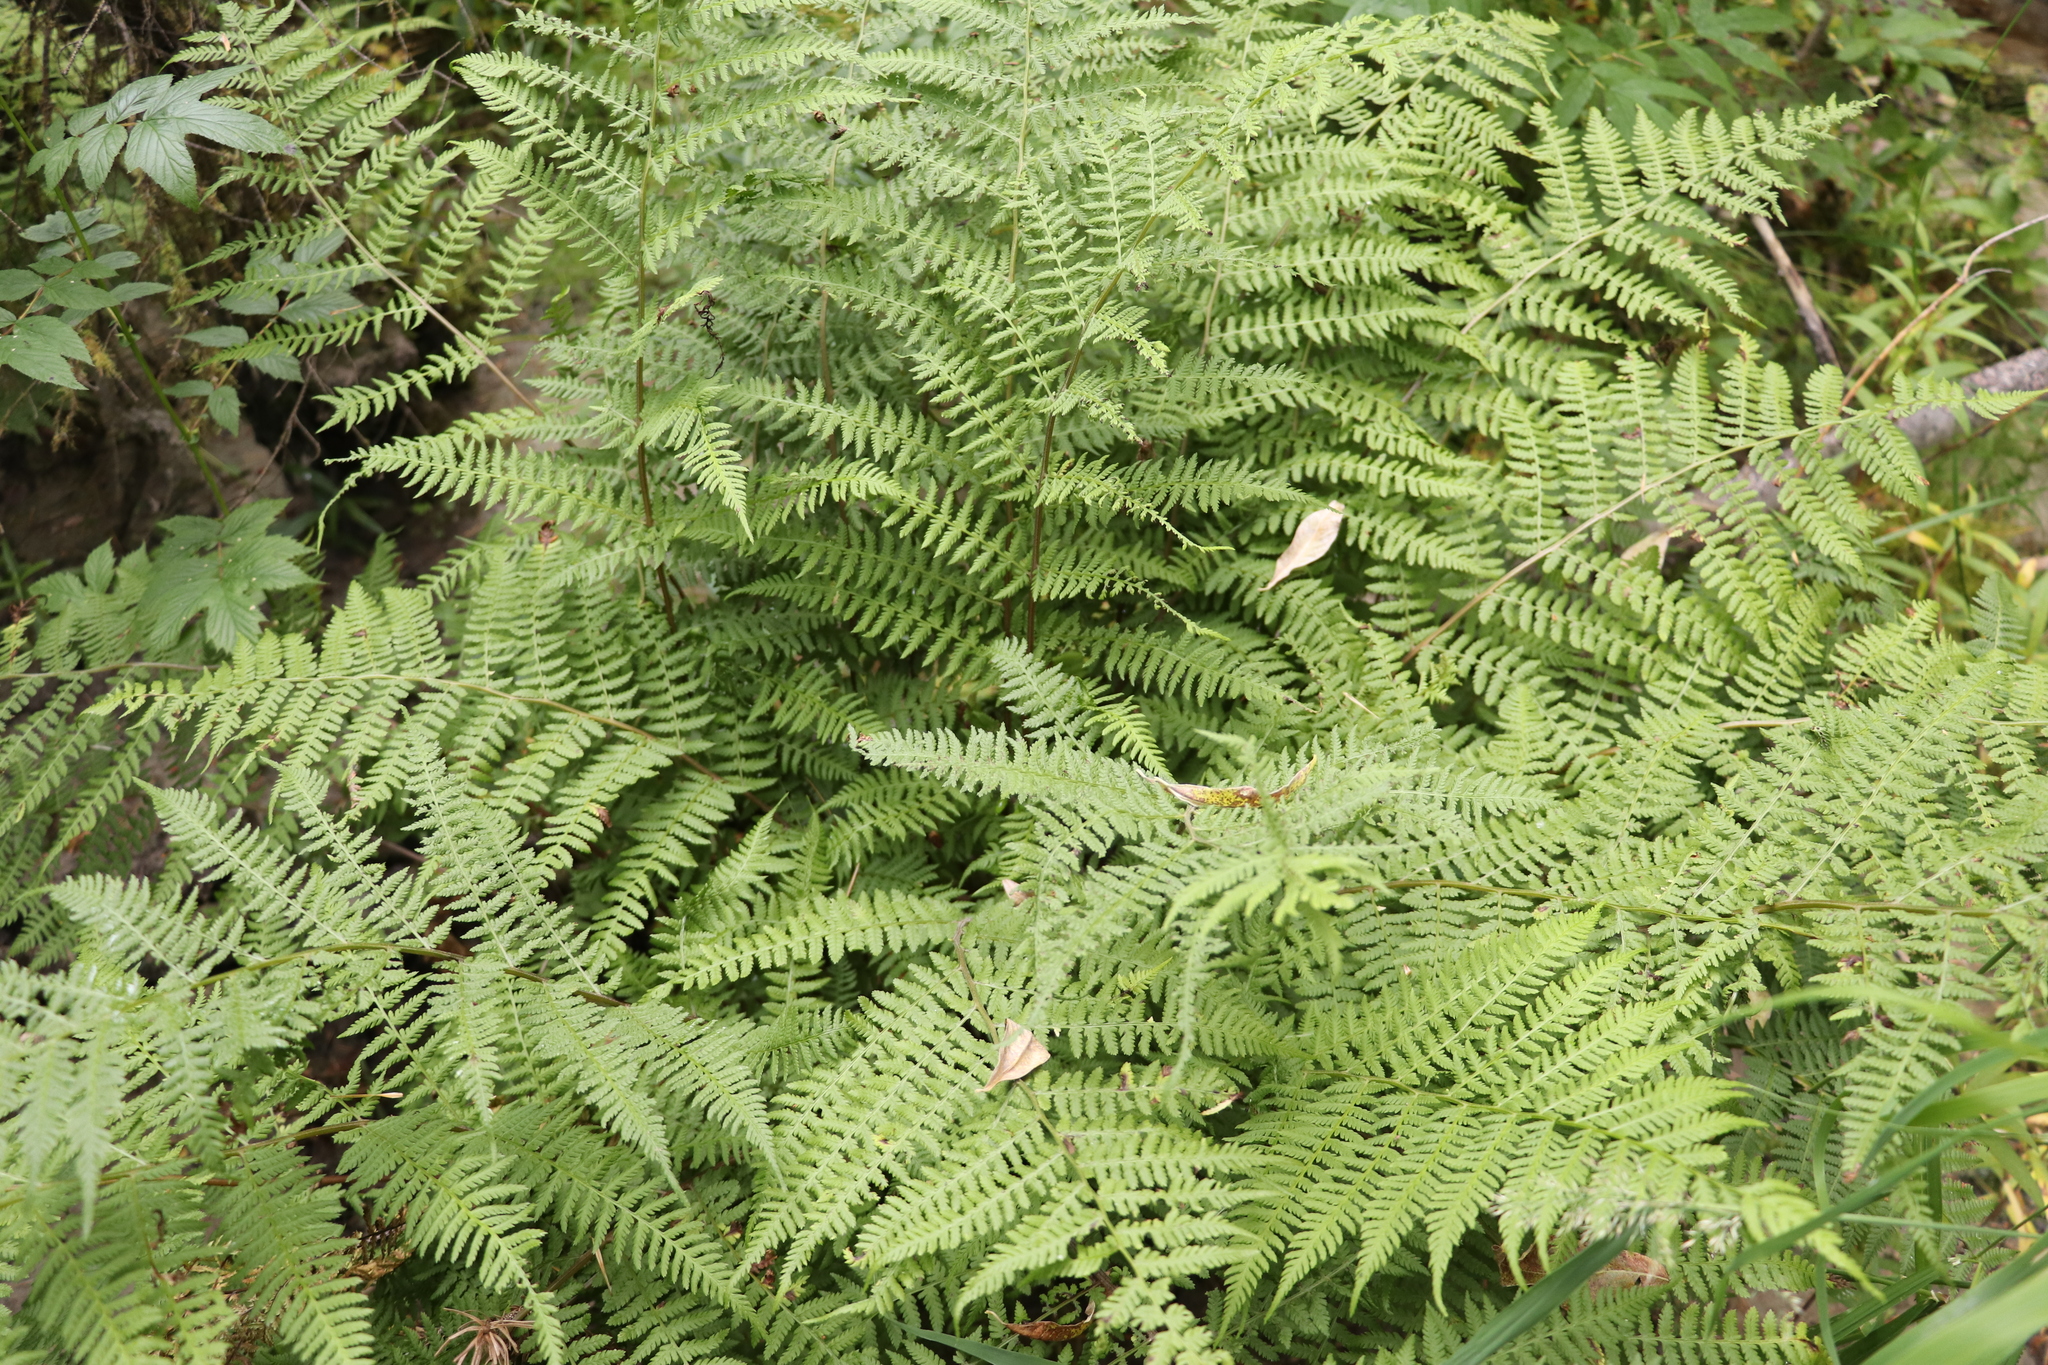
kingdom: Plantae
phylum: Tracheophyta
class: Polypodiopsida
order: Polypodiales
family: Athyriaceae
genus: Athyrium
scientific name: Athyrium filix-femina
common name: Lady fern
